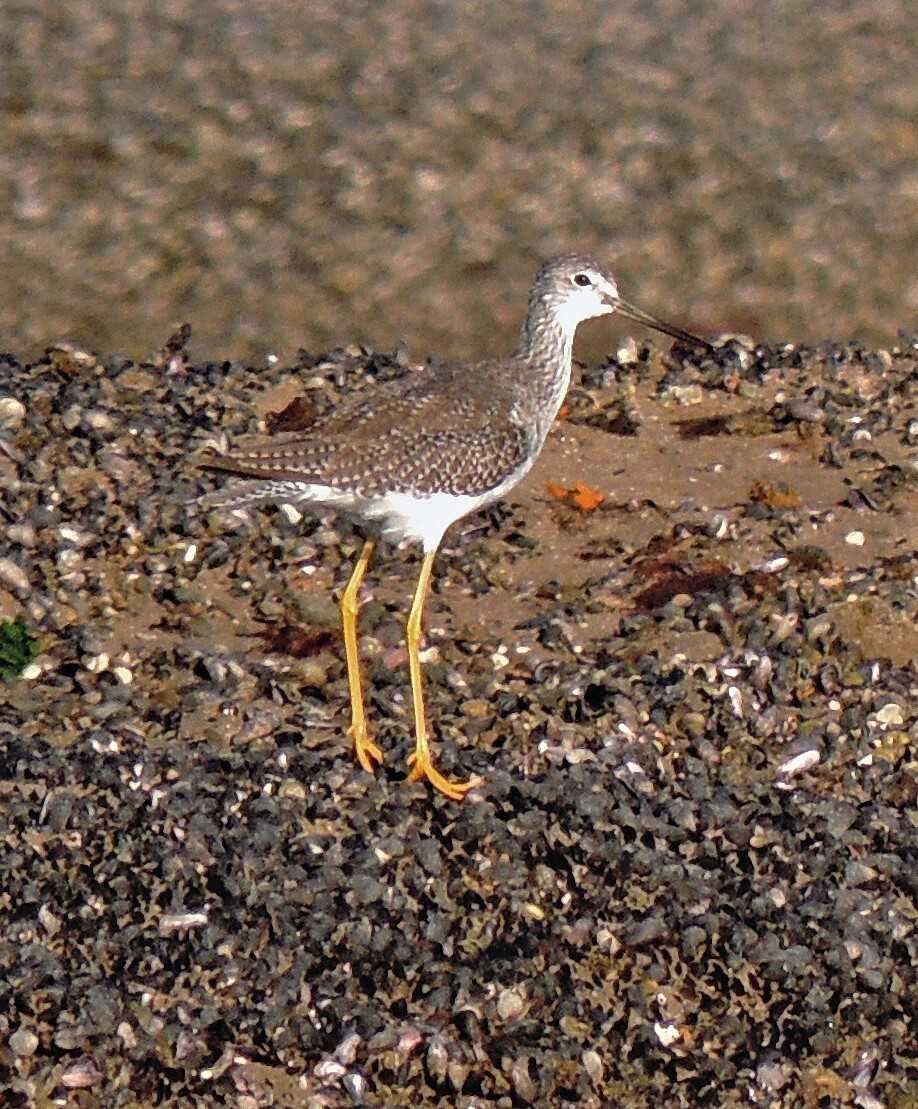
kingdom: Animalia
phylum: Chordata
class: Aves
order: Charadriiformes
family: Scolopacidae
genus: Tringa
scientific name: Tringa melanoleuca
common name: Greater yellowlegs
